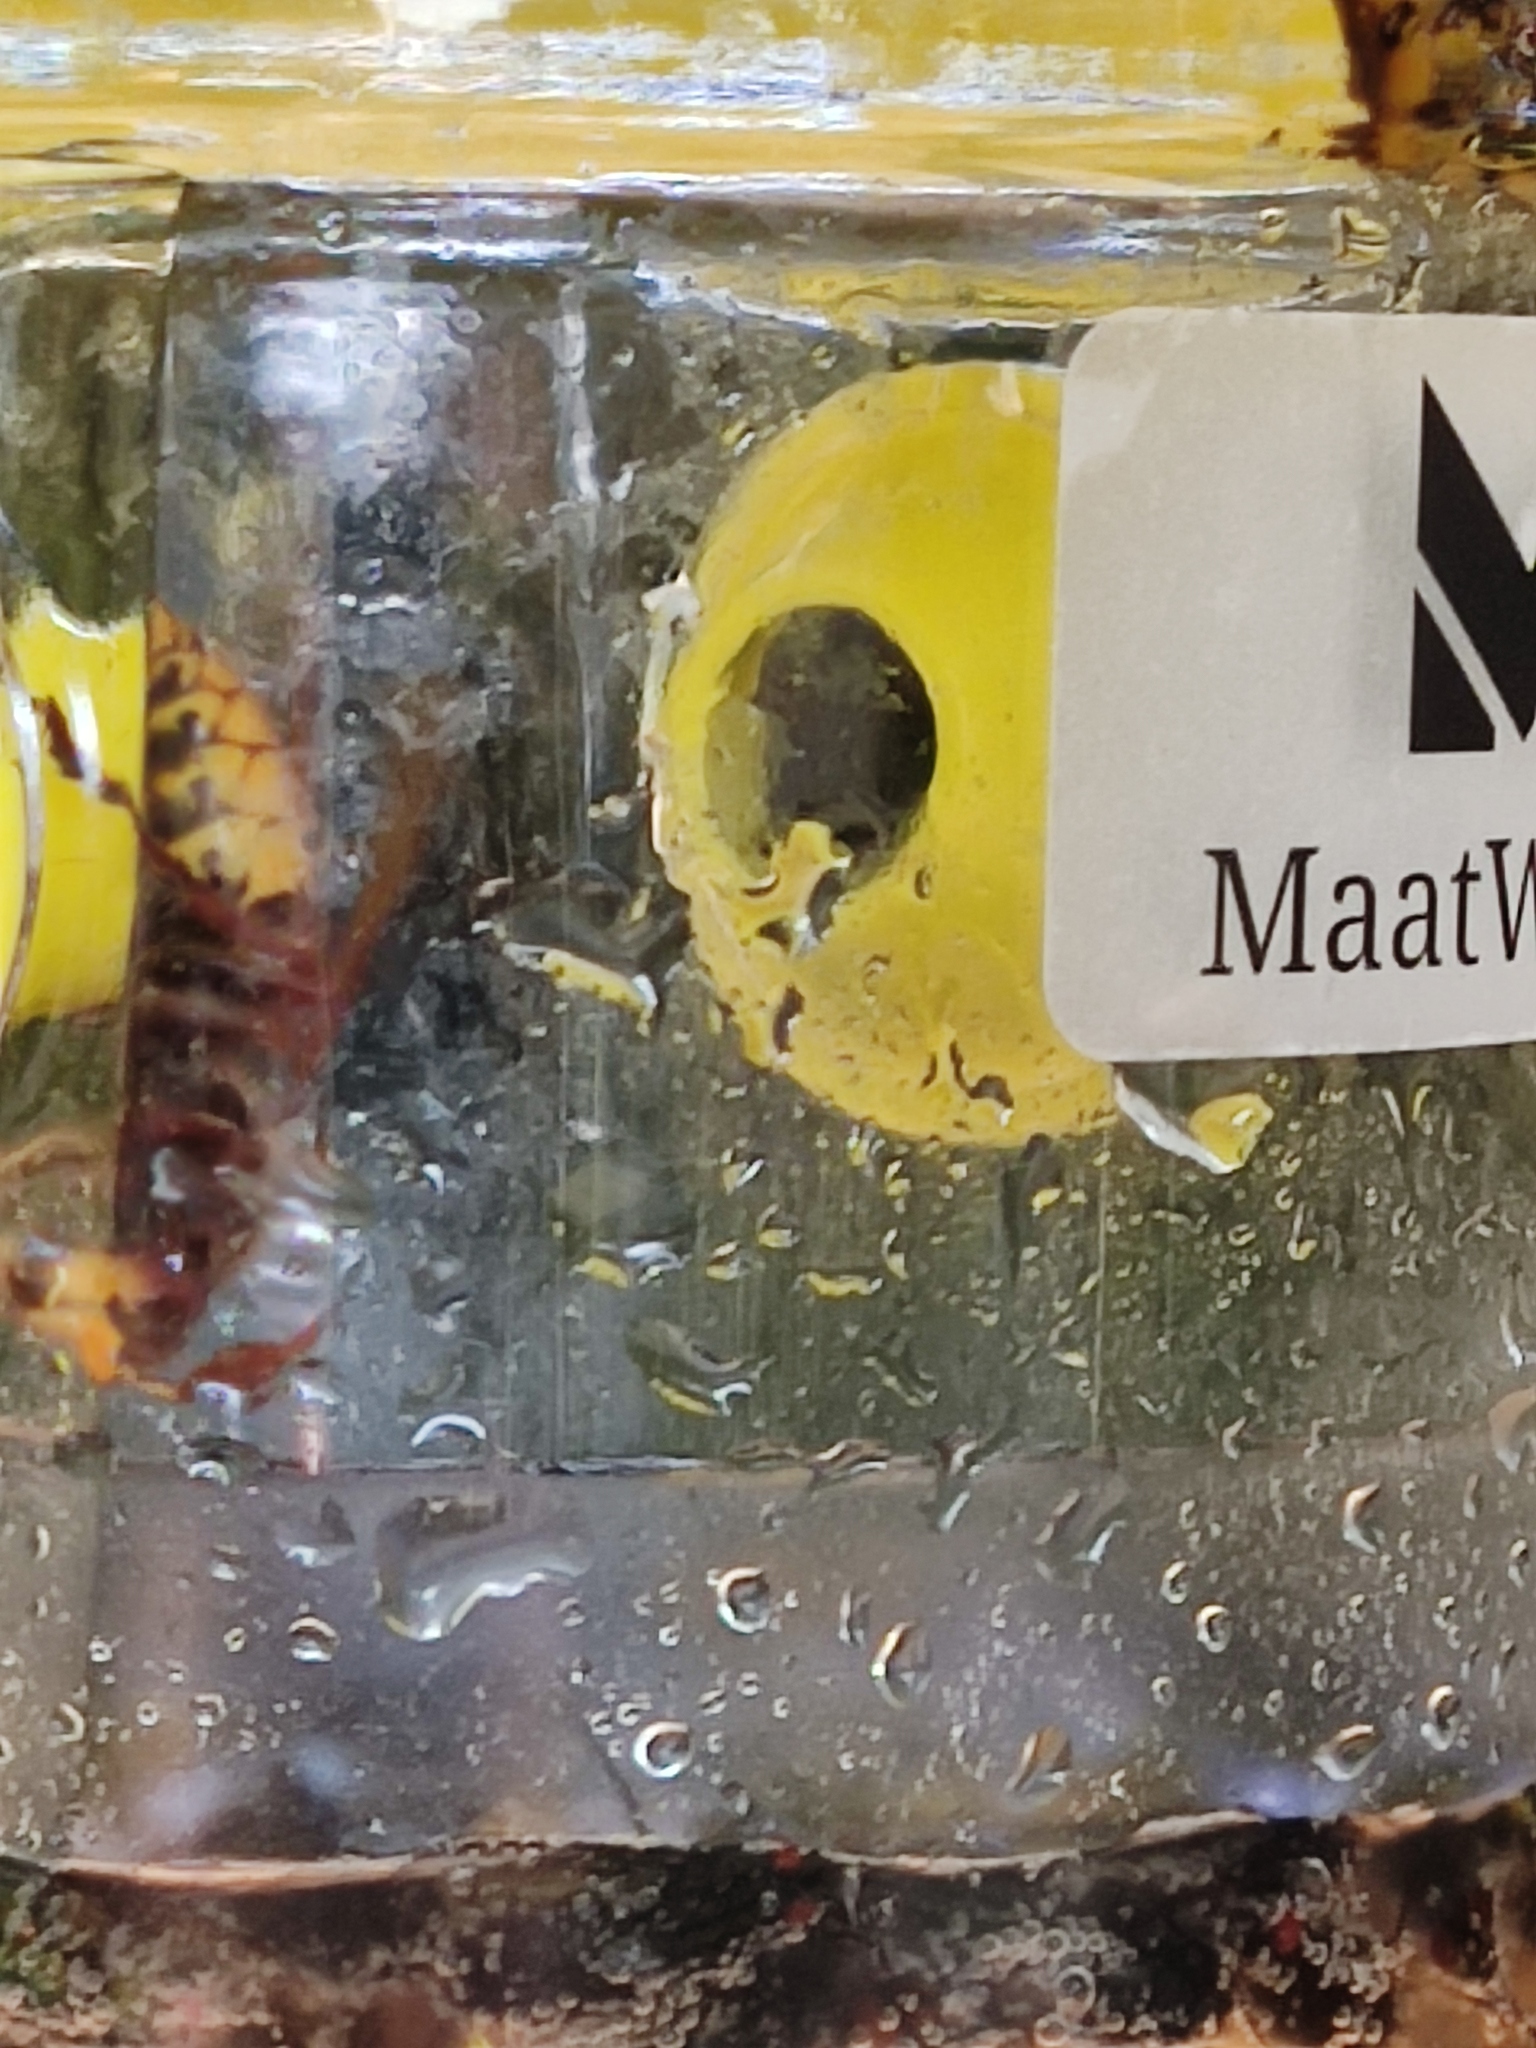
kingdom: Animalia
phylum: Arthropoda
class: Insecta
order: Hymenoptera
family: Vespidae
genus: Vespa
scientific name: Vespa crabro
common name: Hornet
